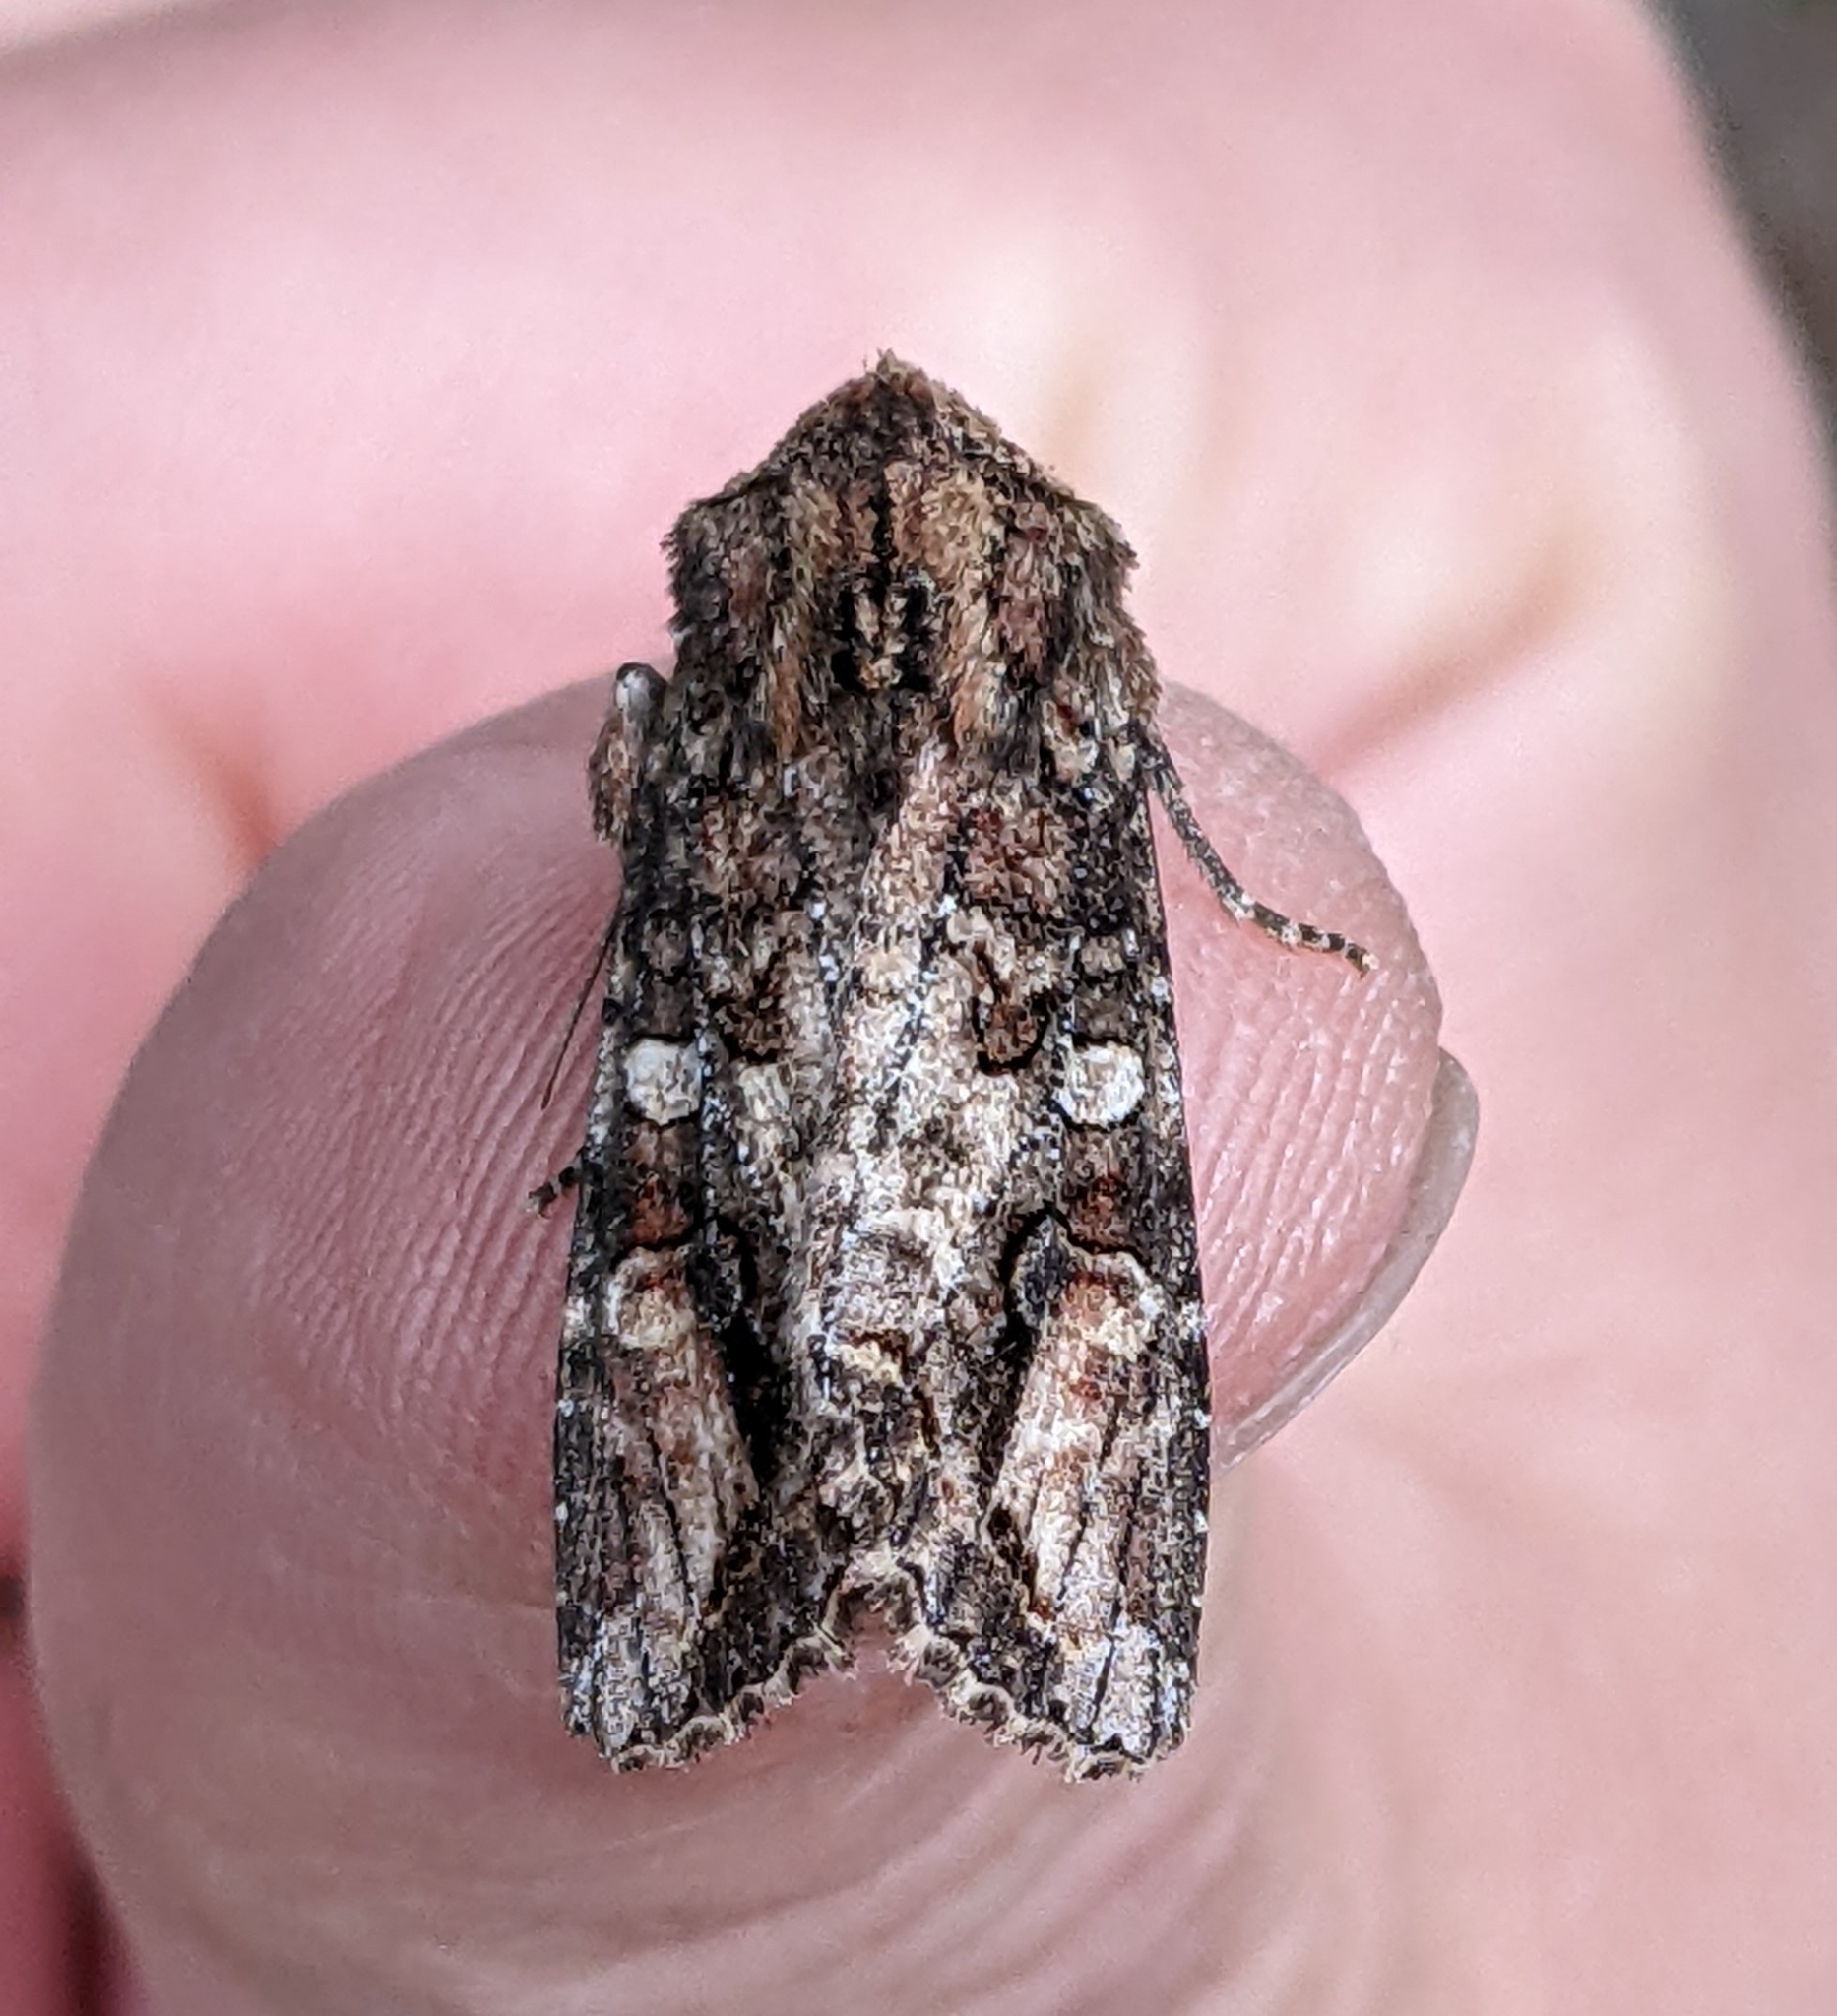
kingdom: Animalia
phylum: Arthropoda
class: Insecta
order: Lepidoptera
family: Noctuidae
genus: Egira
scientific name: Egira perlubens
